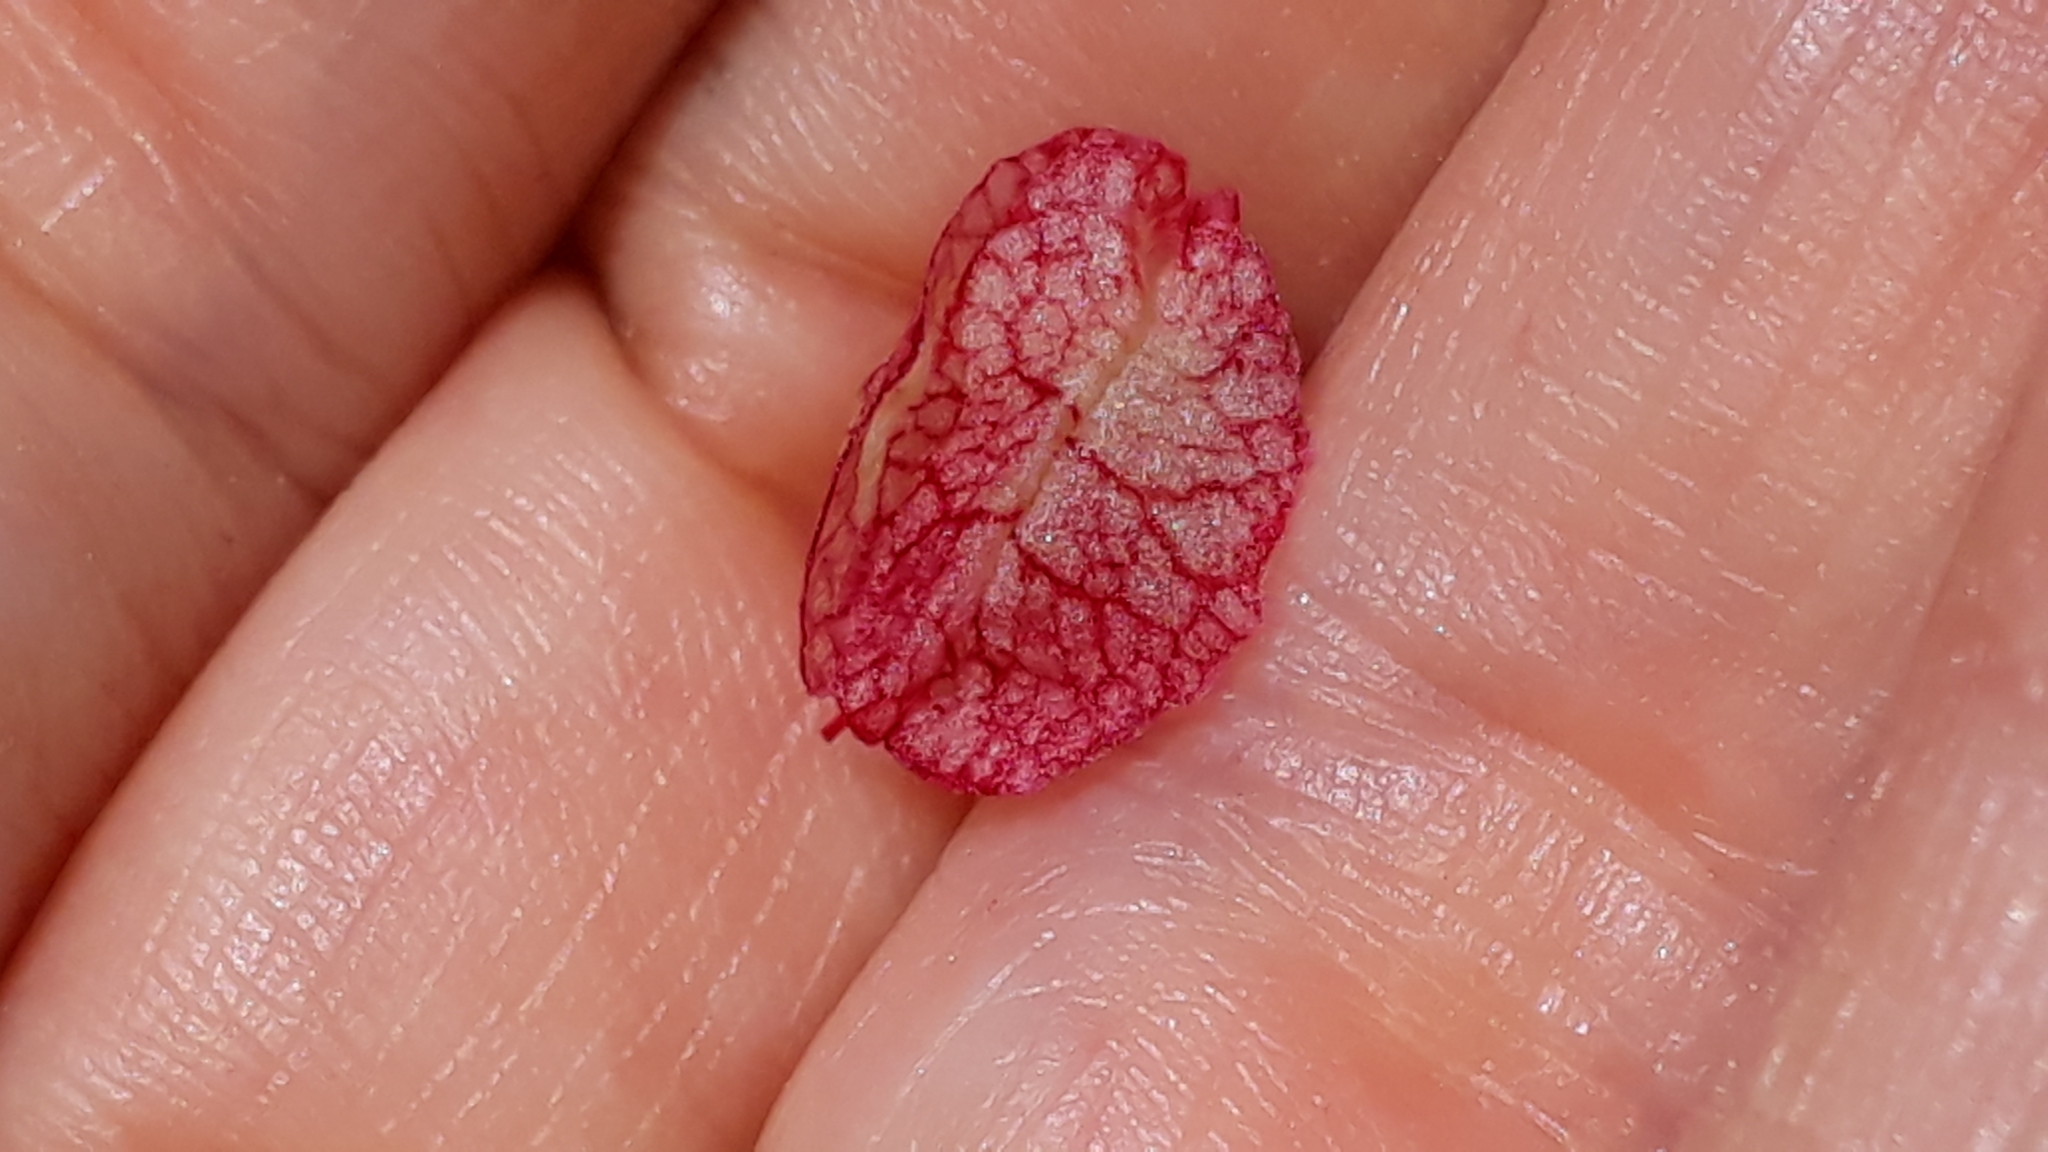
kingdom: Plantae
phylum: Tracheophyta
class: Magnoliopsida
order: Caryophyllales
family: Polygonaceae
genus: Rumex
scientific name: Rumex vesicarius
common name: Bladder dock
